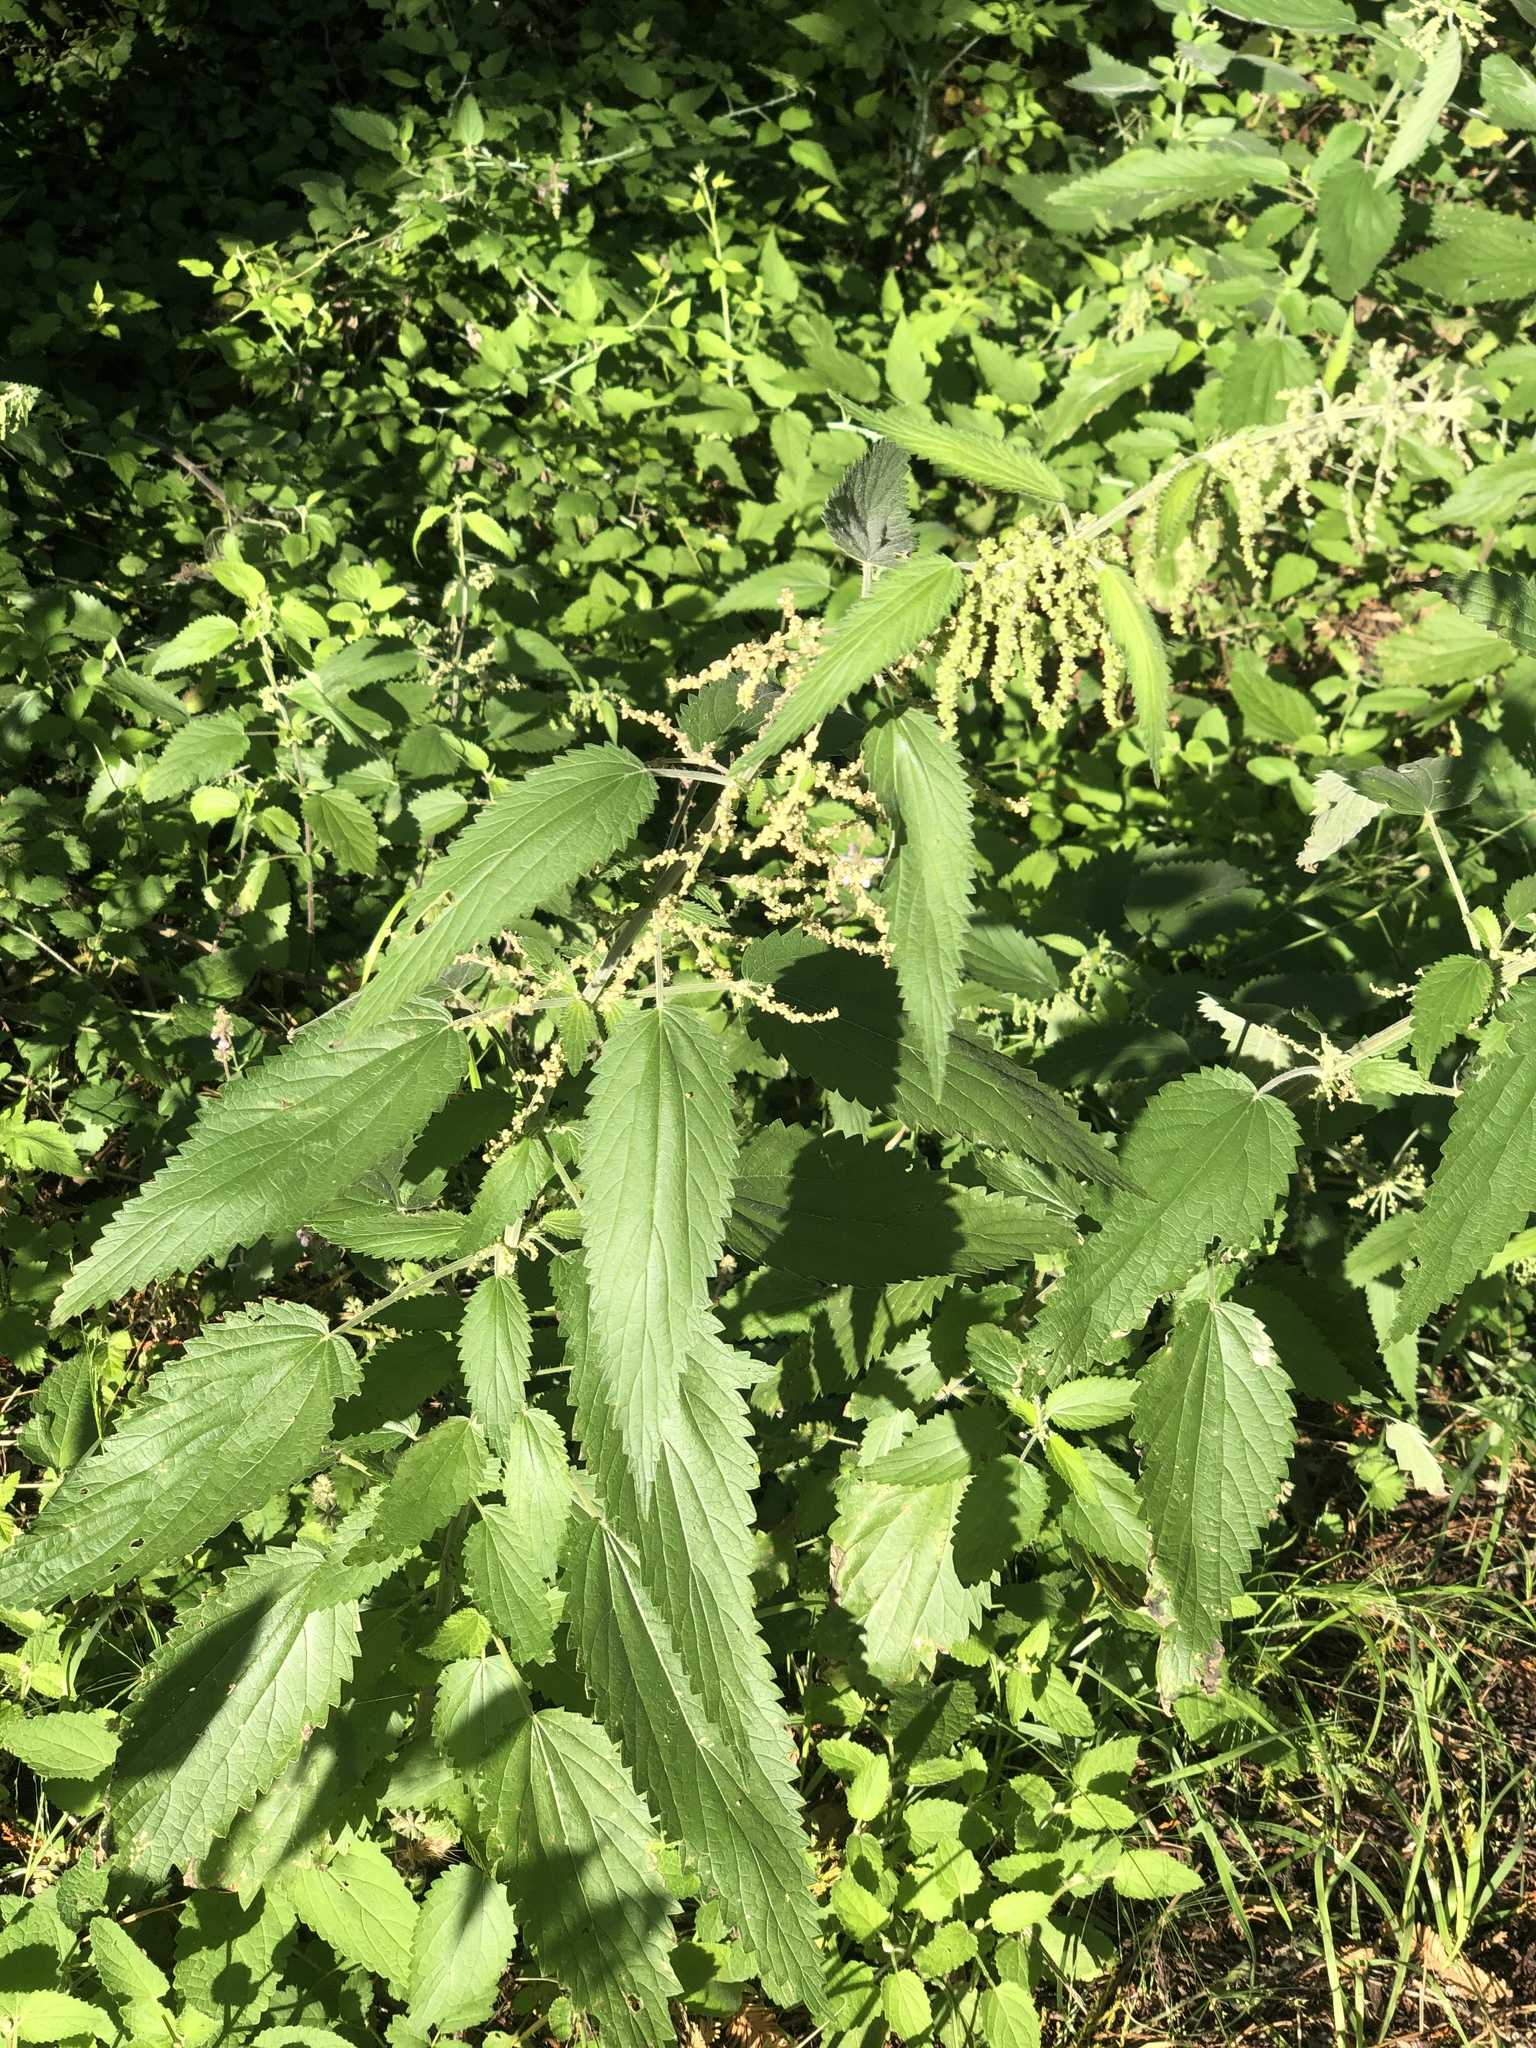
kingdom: Plantae
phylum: Tracheophyta
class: Magnoliopsida
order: Rosales
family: Urticaceae
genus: Urtica
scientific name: Urtica dioica
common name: Common nettle
